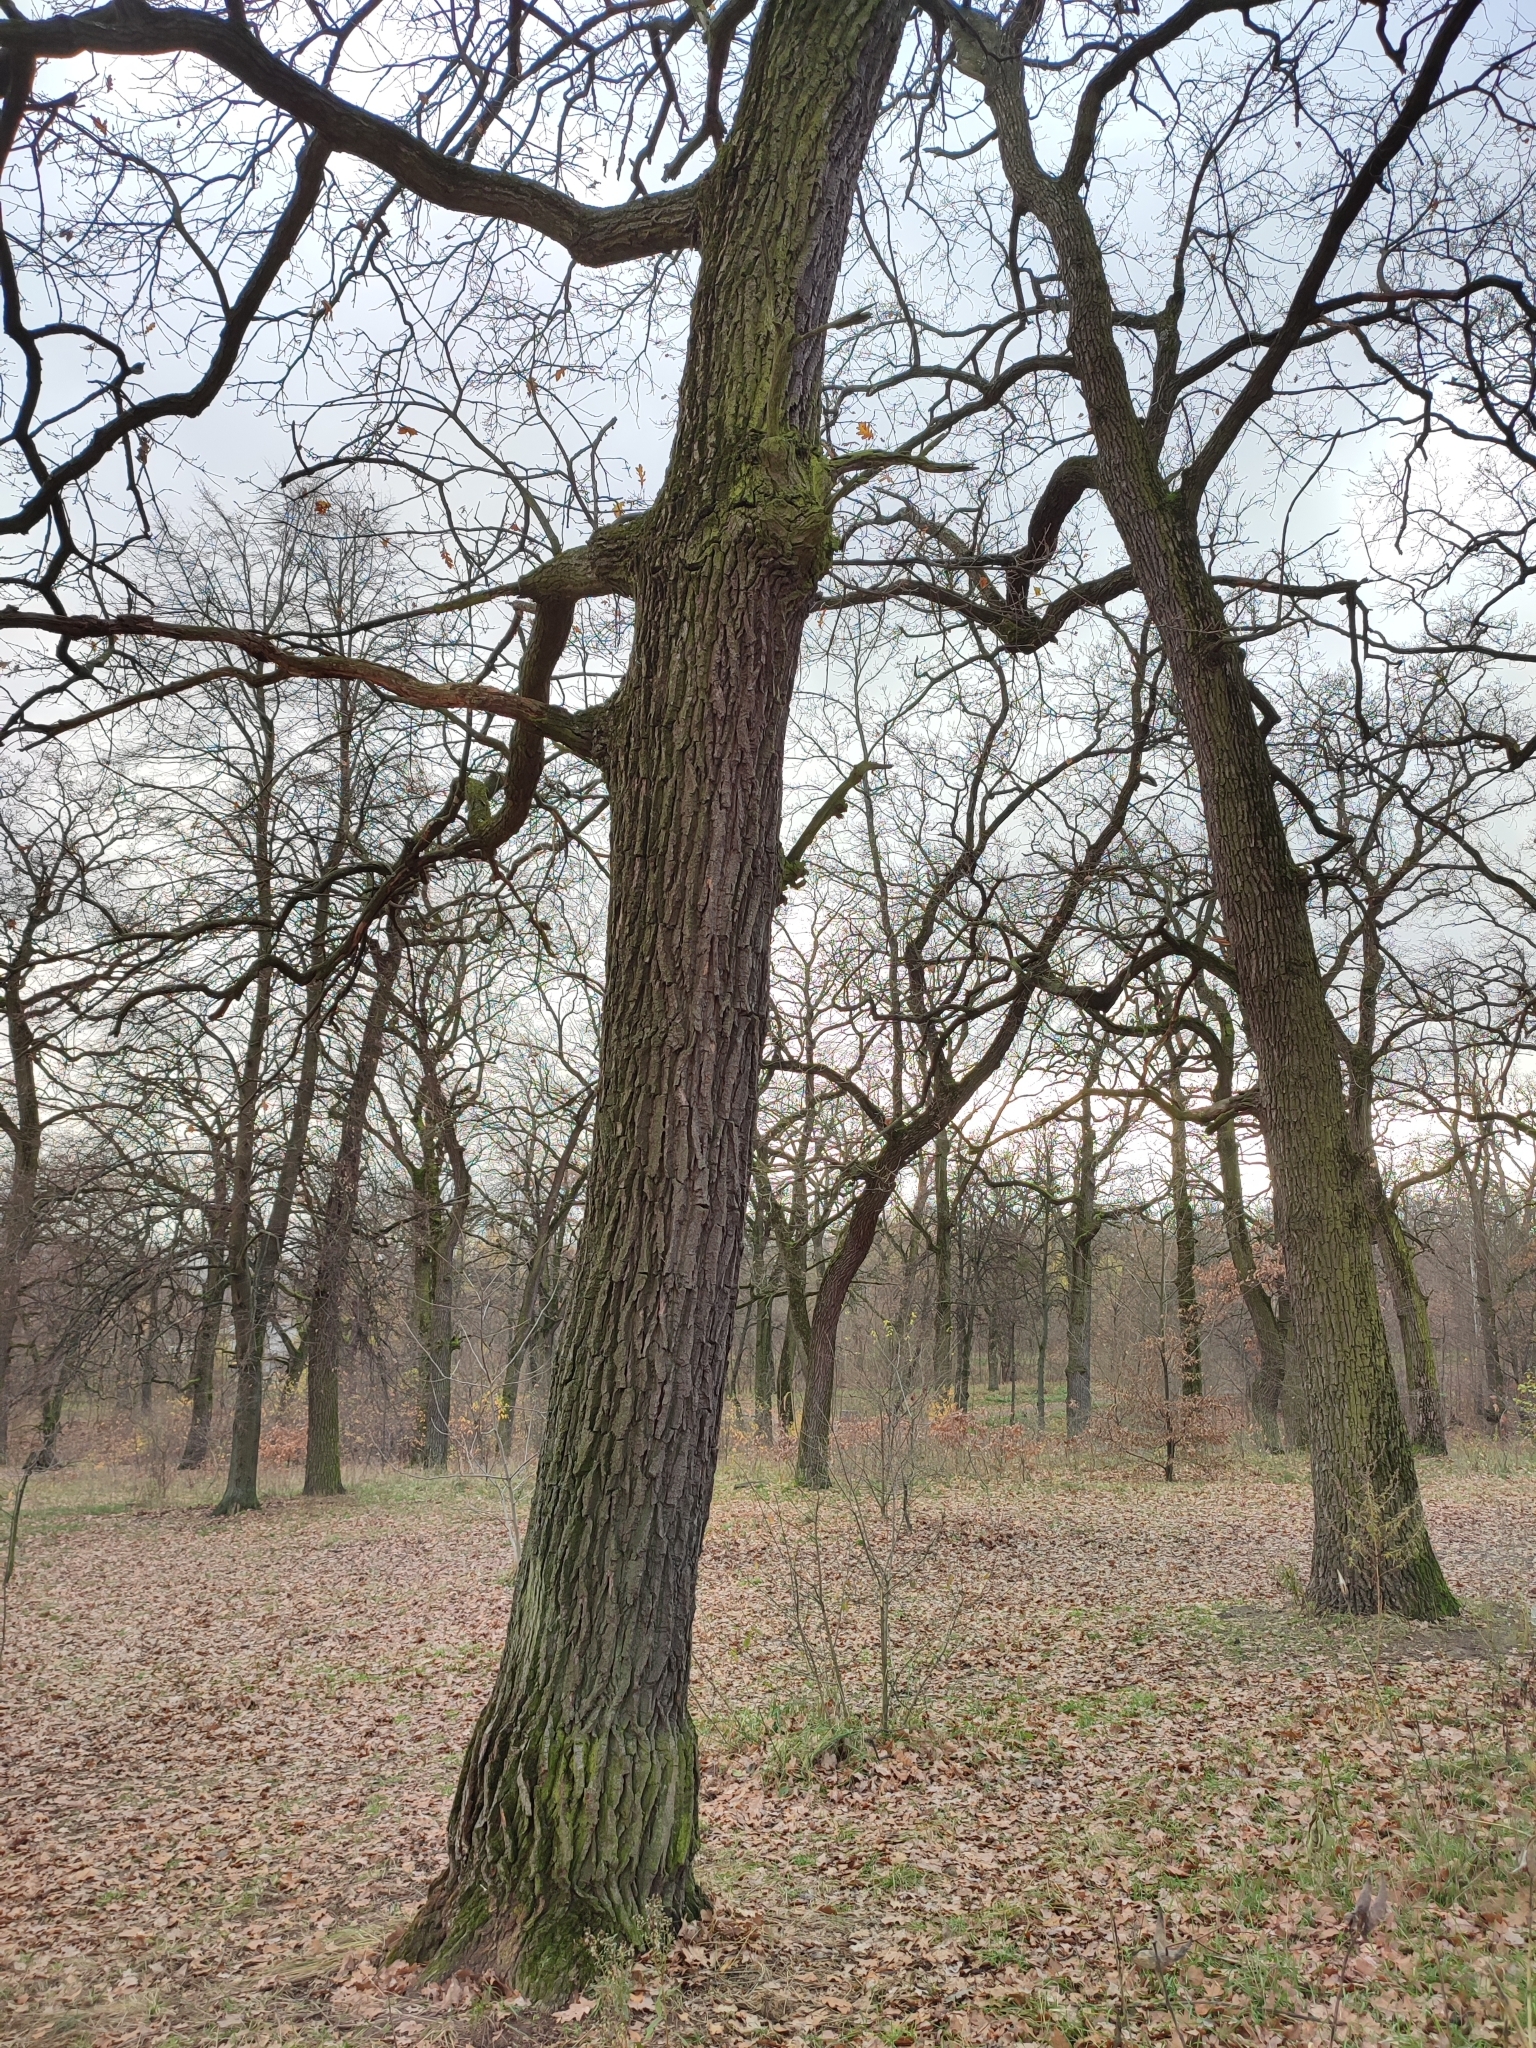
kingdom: Plantae
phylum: Tracheophyta
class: Magnoliopsida
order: Fagales
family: Fagaceae
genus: Quercus
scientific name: Quercus robur
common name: Pedunculate oak
